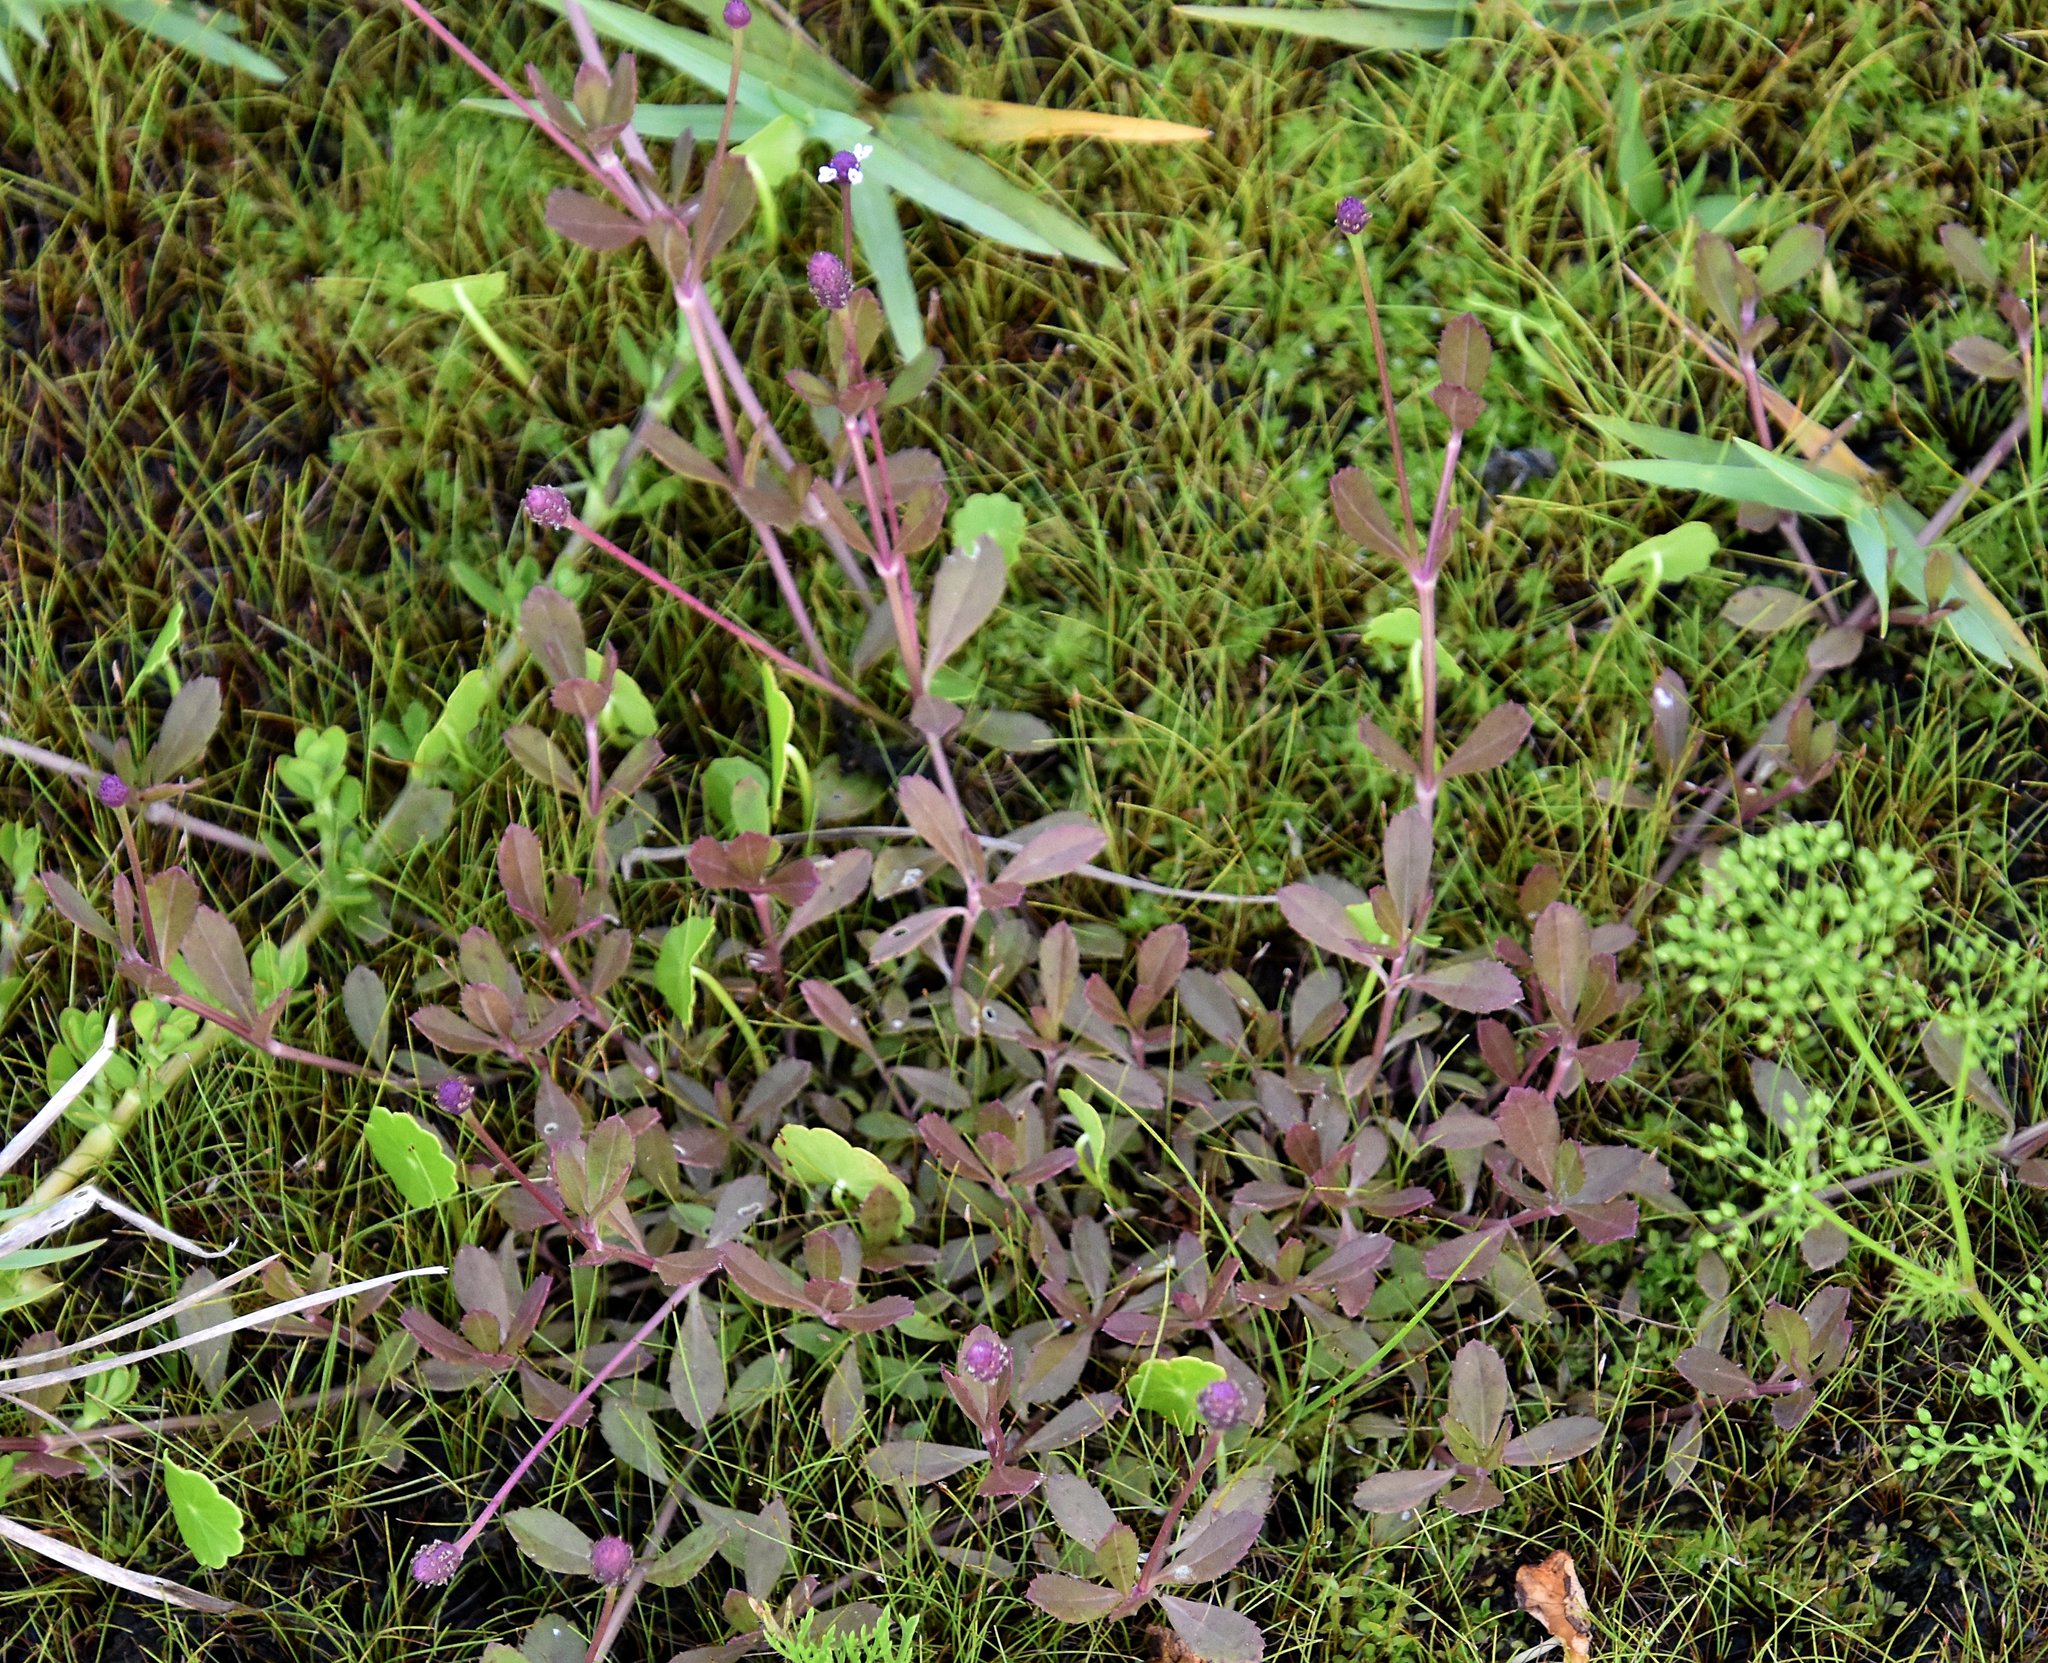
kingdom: Plantae
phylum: Tracheophyta
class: Magnoliopsida
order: Lamiales
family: Verbenaceae
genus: Phyla
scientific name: Phyla nodiflora
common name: Frogfruit
